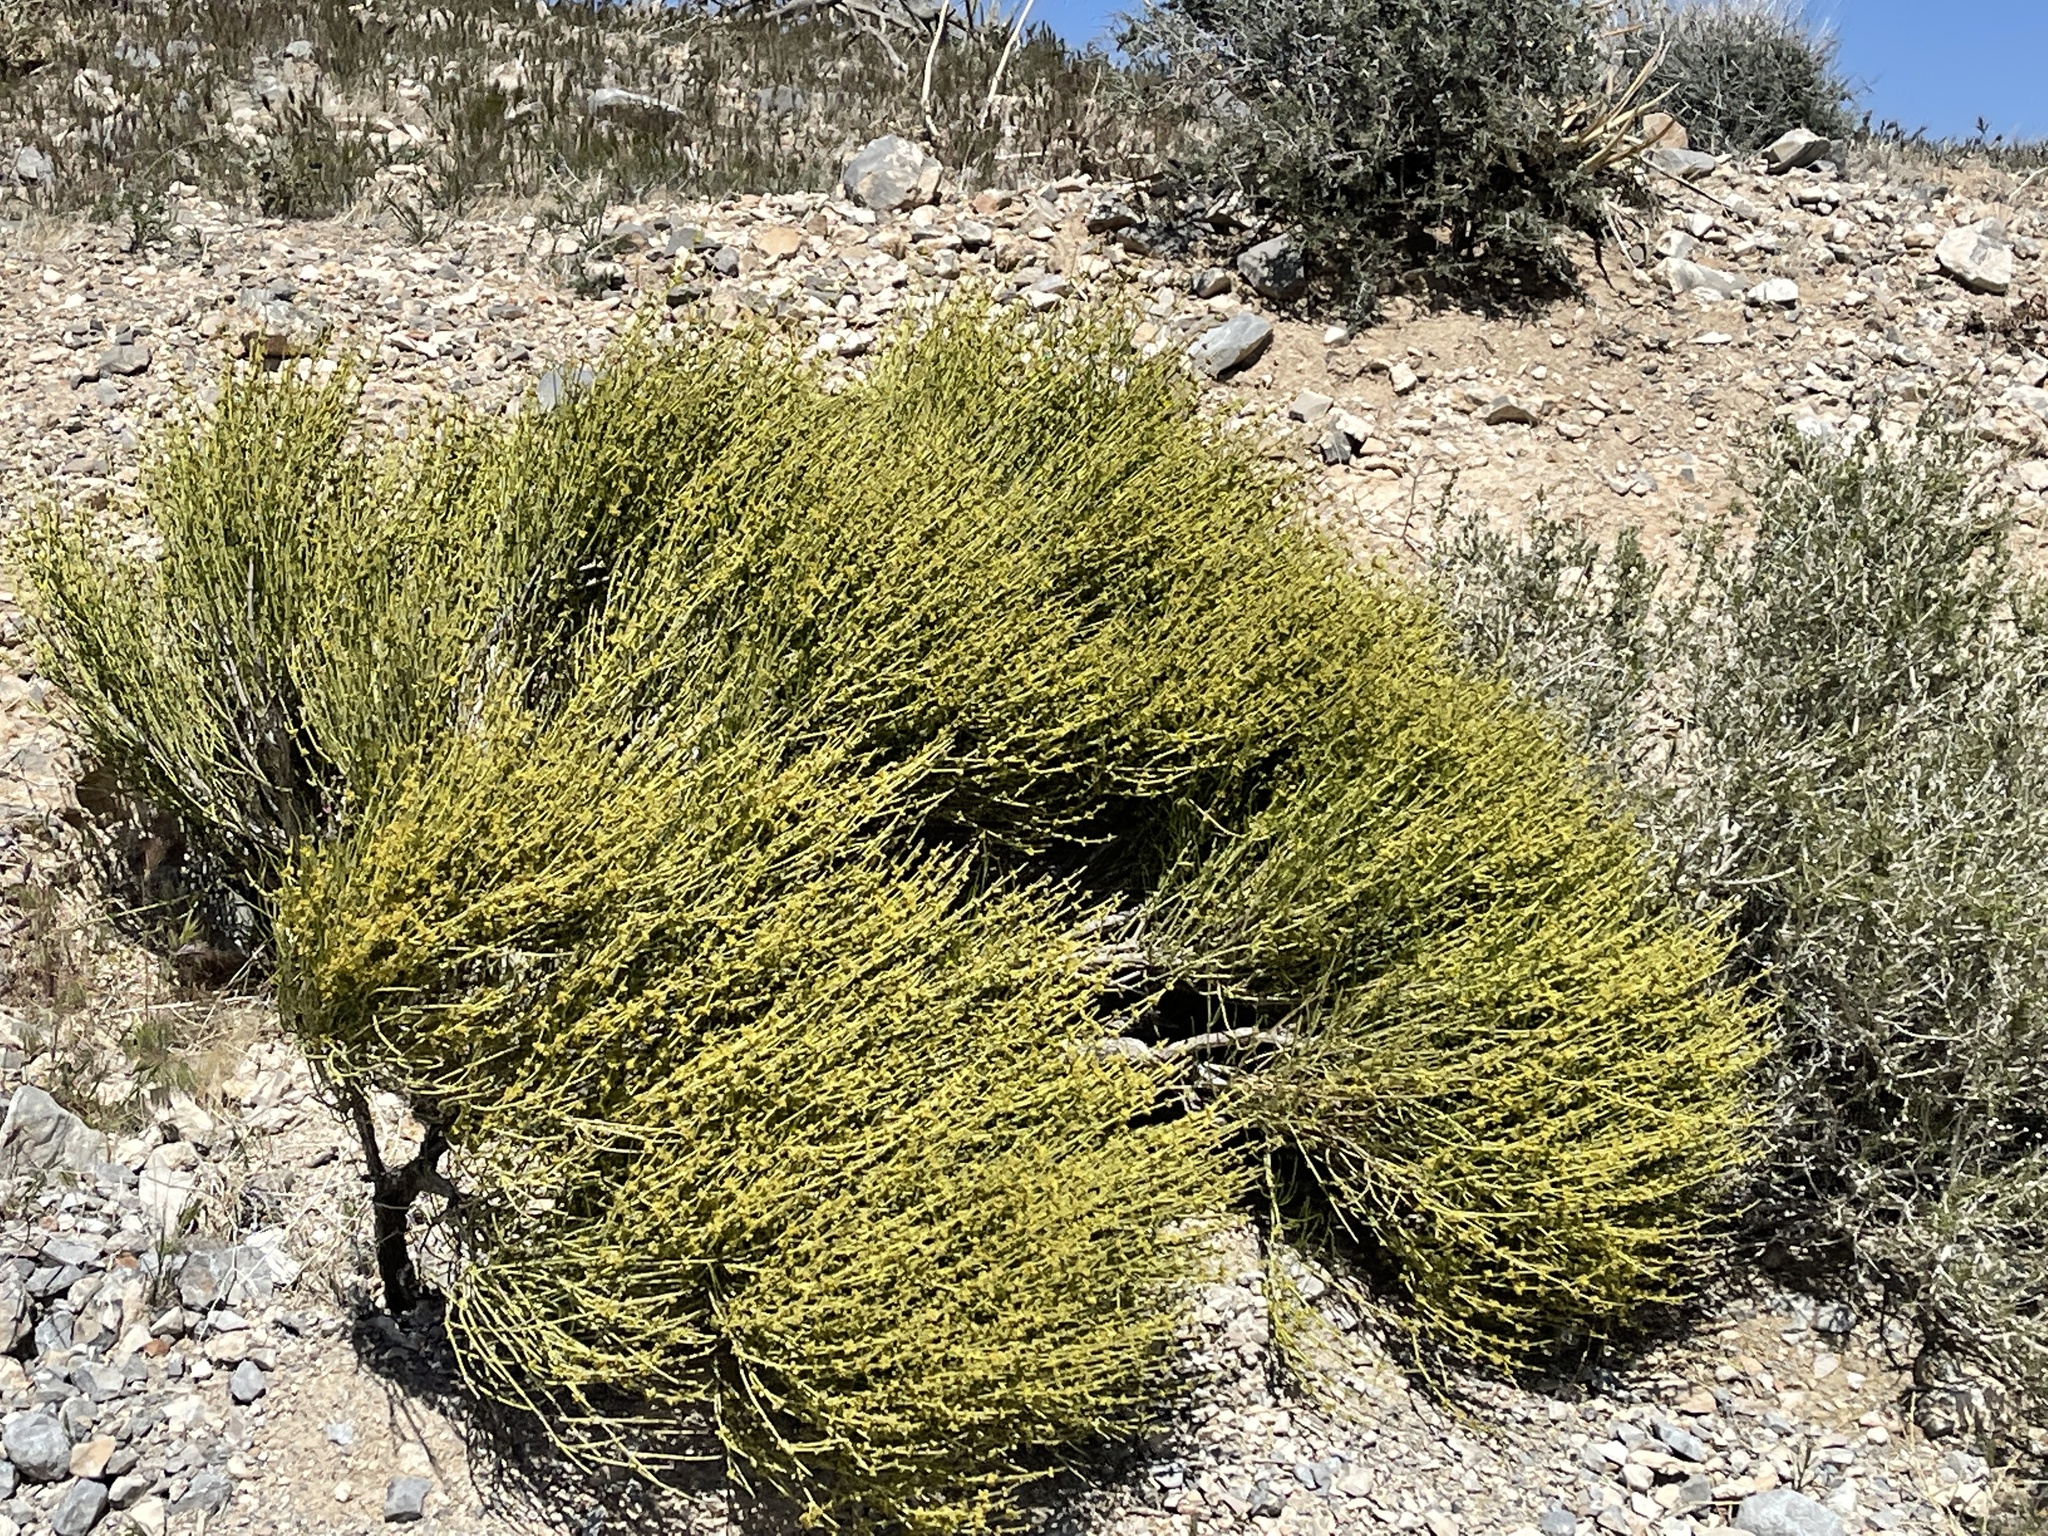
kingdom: Plantae
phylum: Tracheophyta
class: Gnetopsida
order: Ephedrales
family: Ephedraceae
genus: Ephedra
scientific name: Ephedra viridis
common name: Green ephedra
